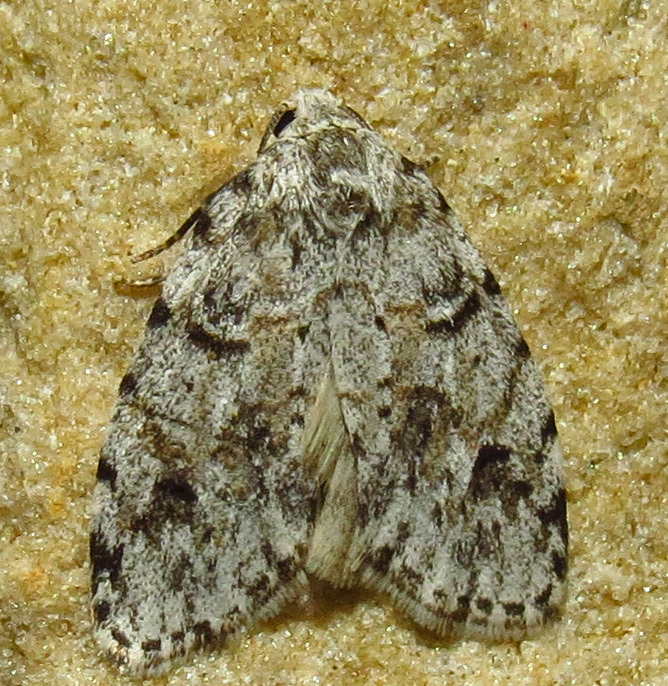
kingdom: Animalia
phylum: Arthropoda
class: Insecta
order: Lepidoptera
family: Erebidae
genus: Clemensia
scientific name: Clemensia albata
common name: Little white lichen moth
